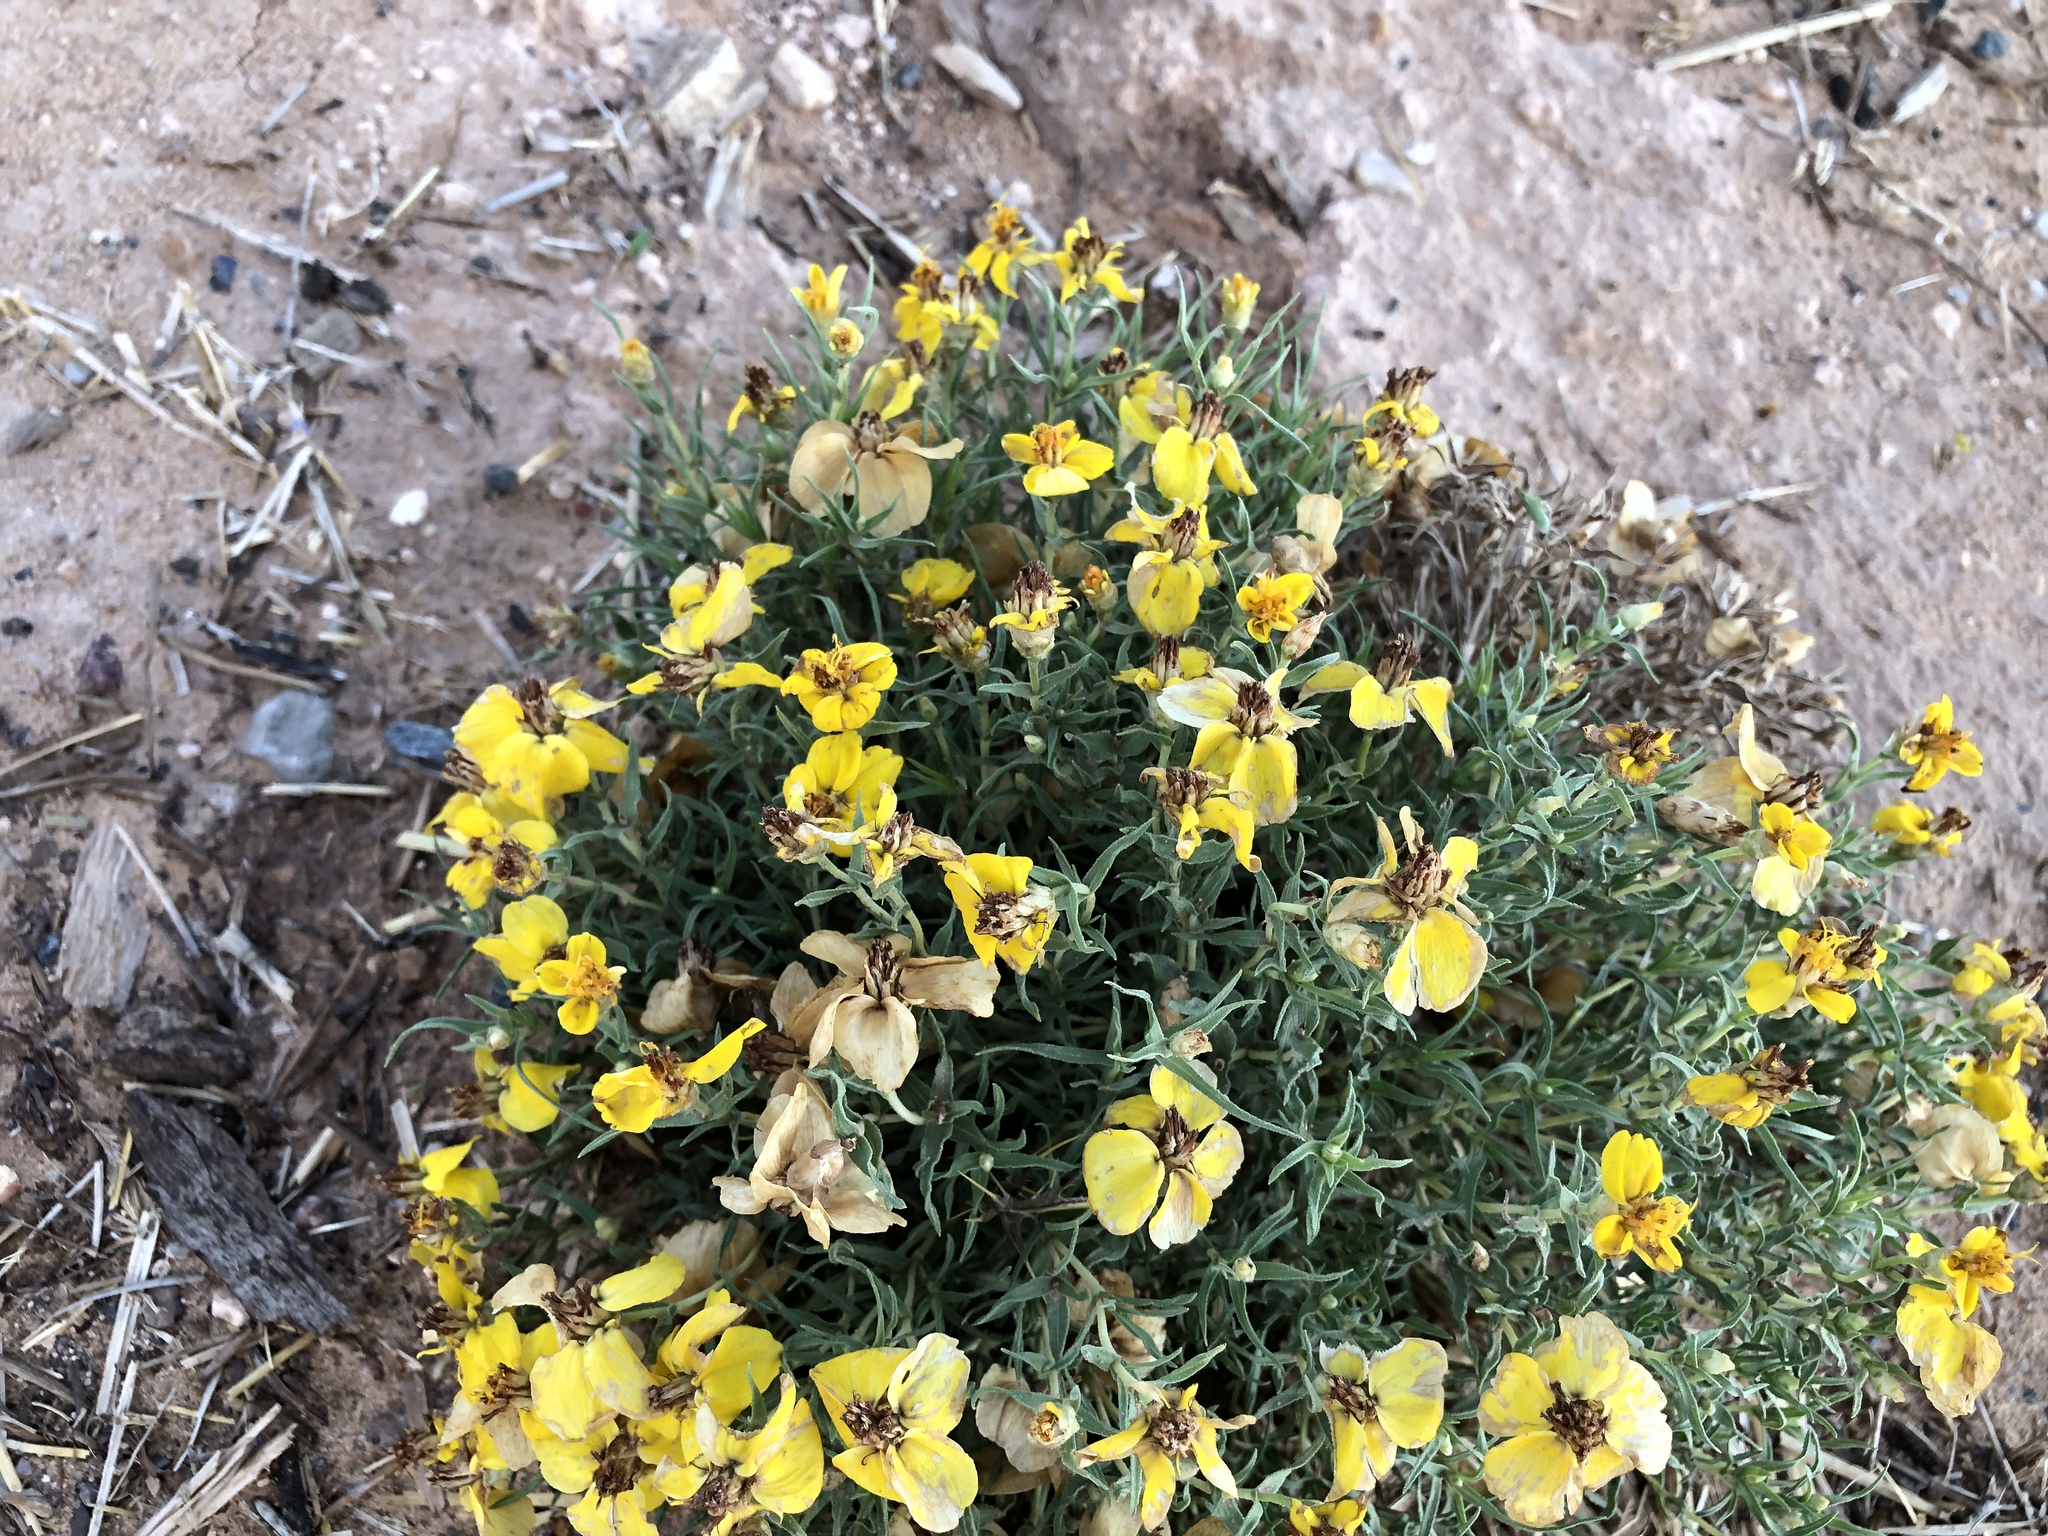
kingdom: Plantae
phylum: Tracheophyta
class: Magnoliopsida
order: Asterales
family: Asteraceae
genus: Zinnia
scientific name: Zinnia grandiflora
